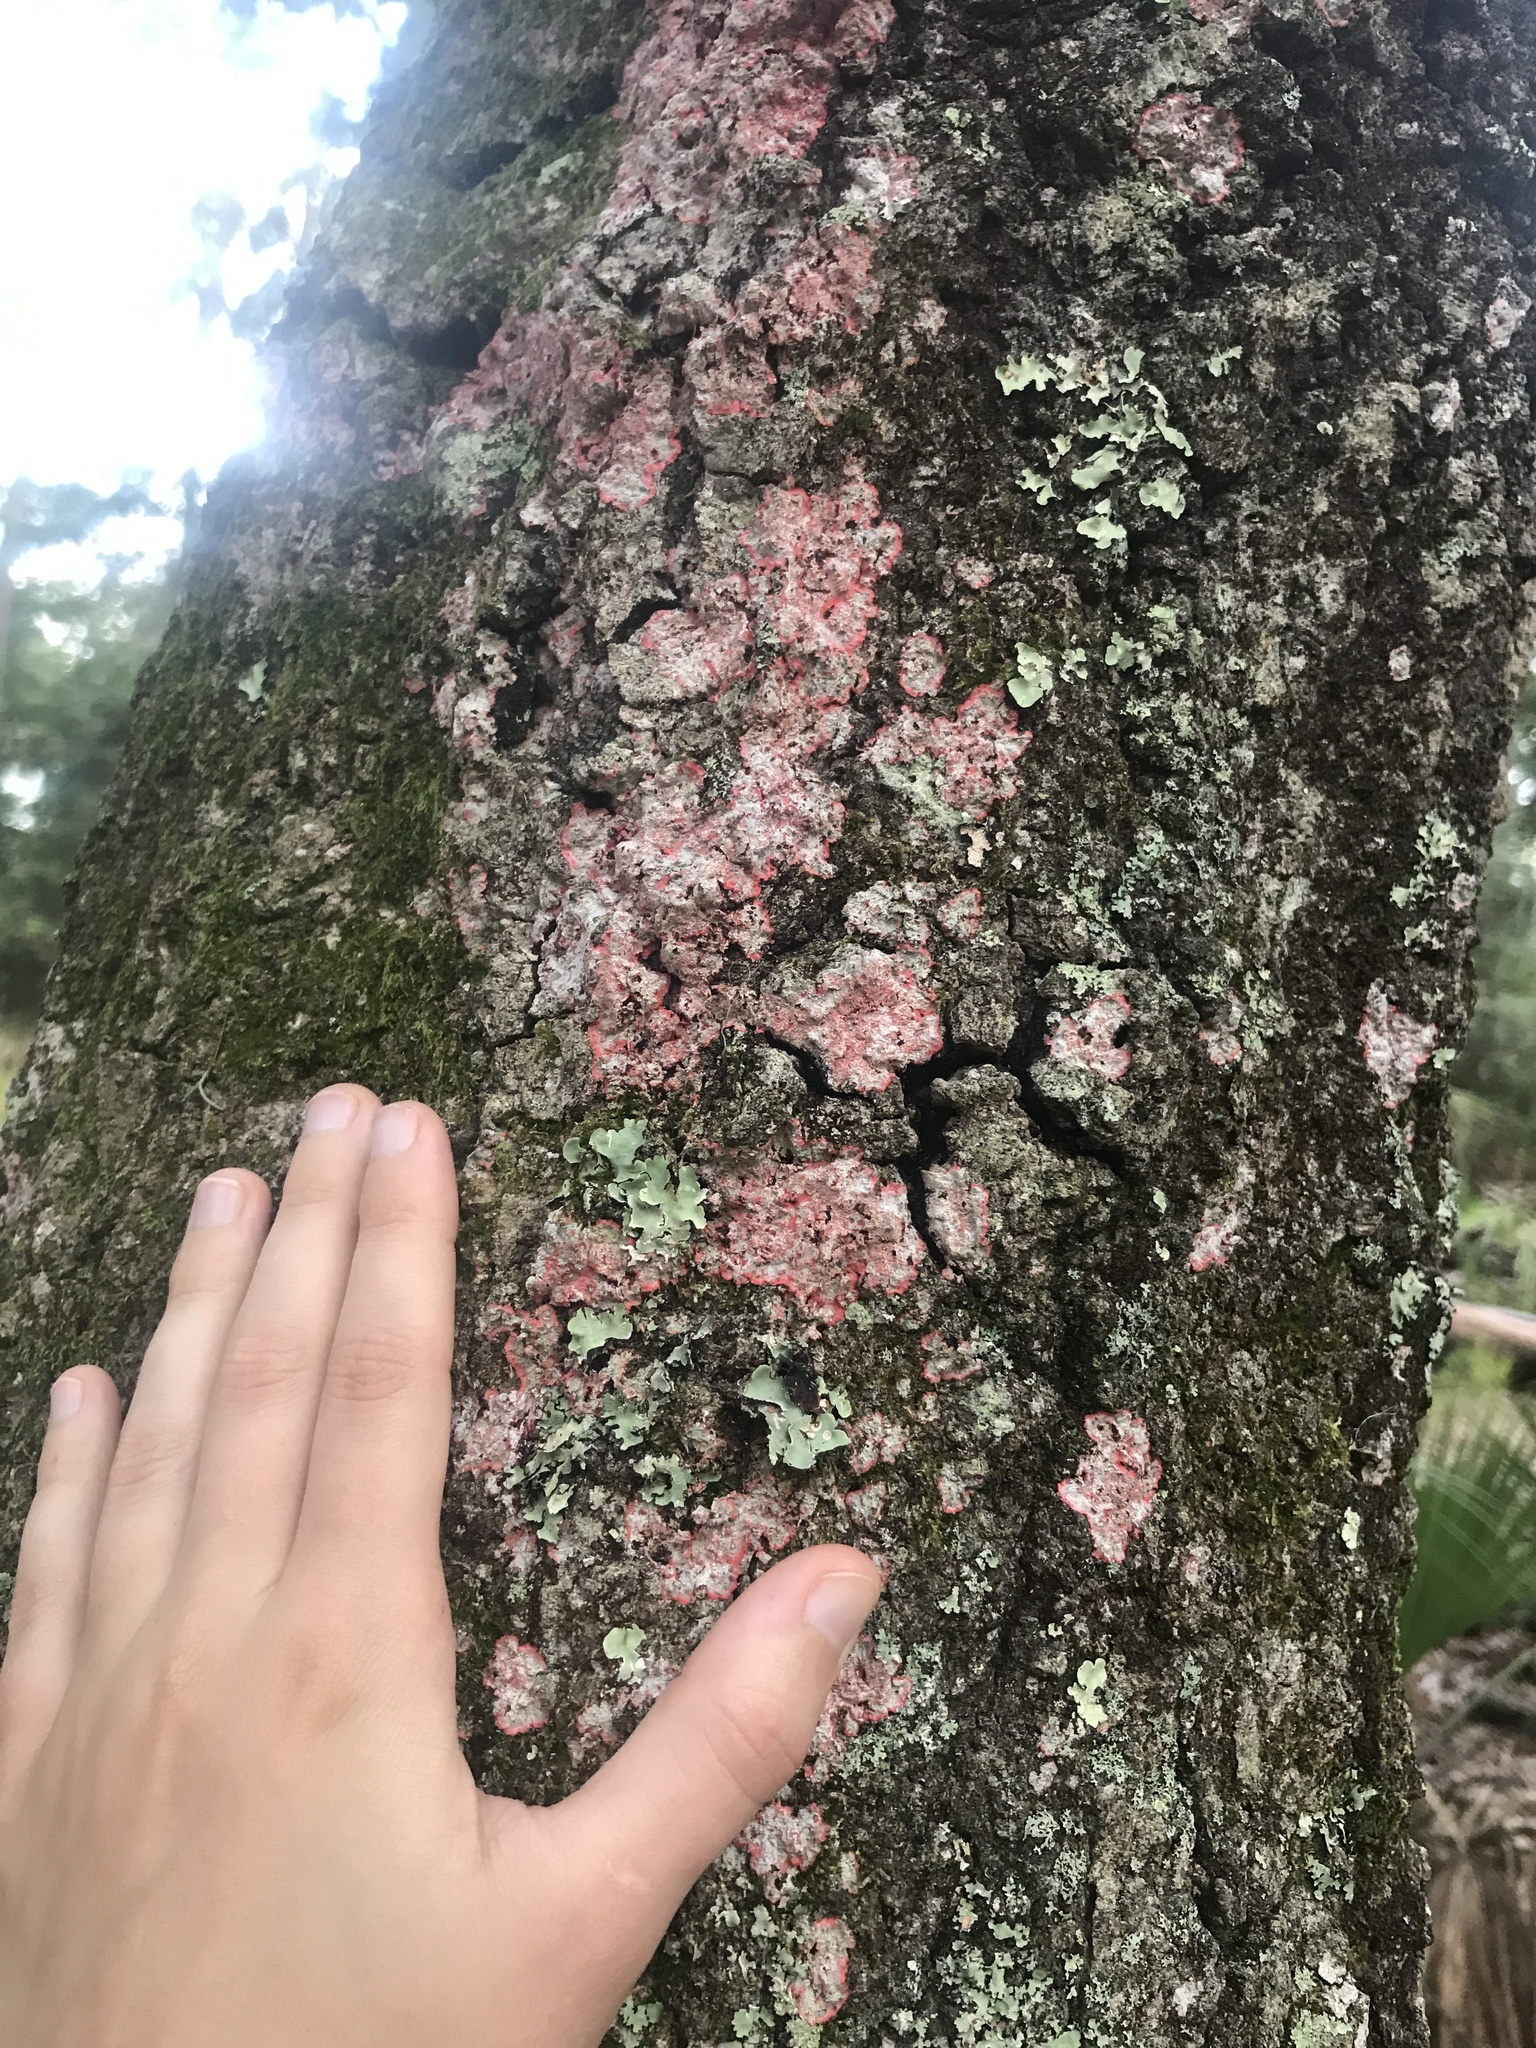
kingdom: Fungi
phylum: Ascomycota
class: Arthoniomycetes
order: Arthoniales
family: Arthoniaceae
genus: Herpothallon
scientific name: Herpothallon rubrocinctum
